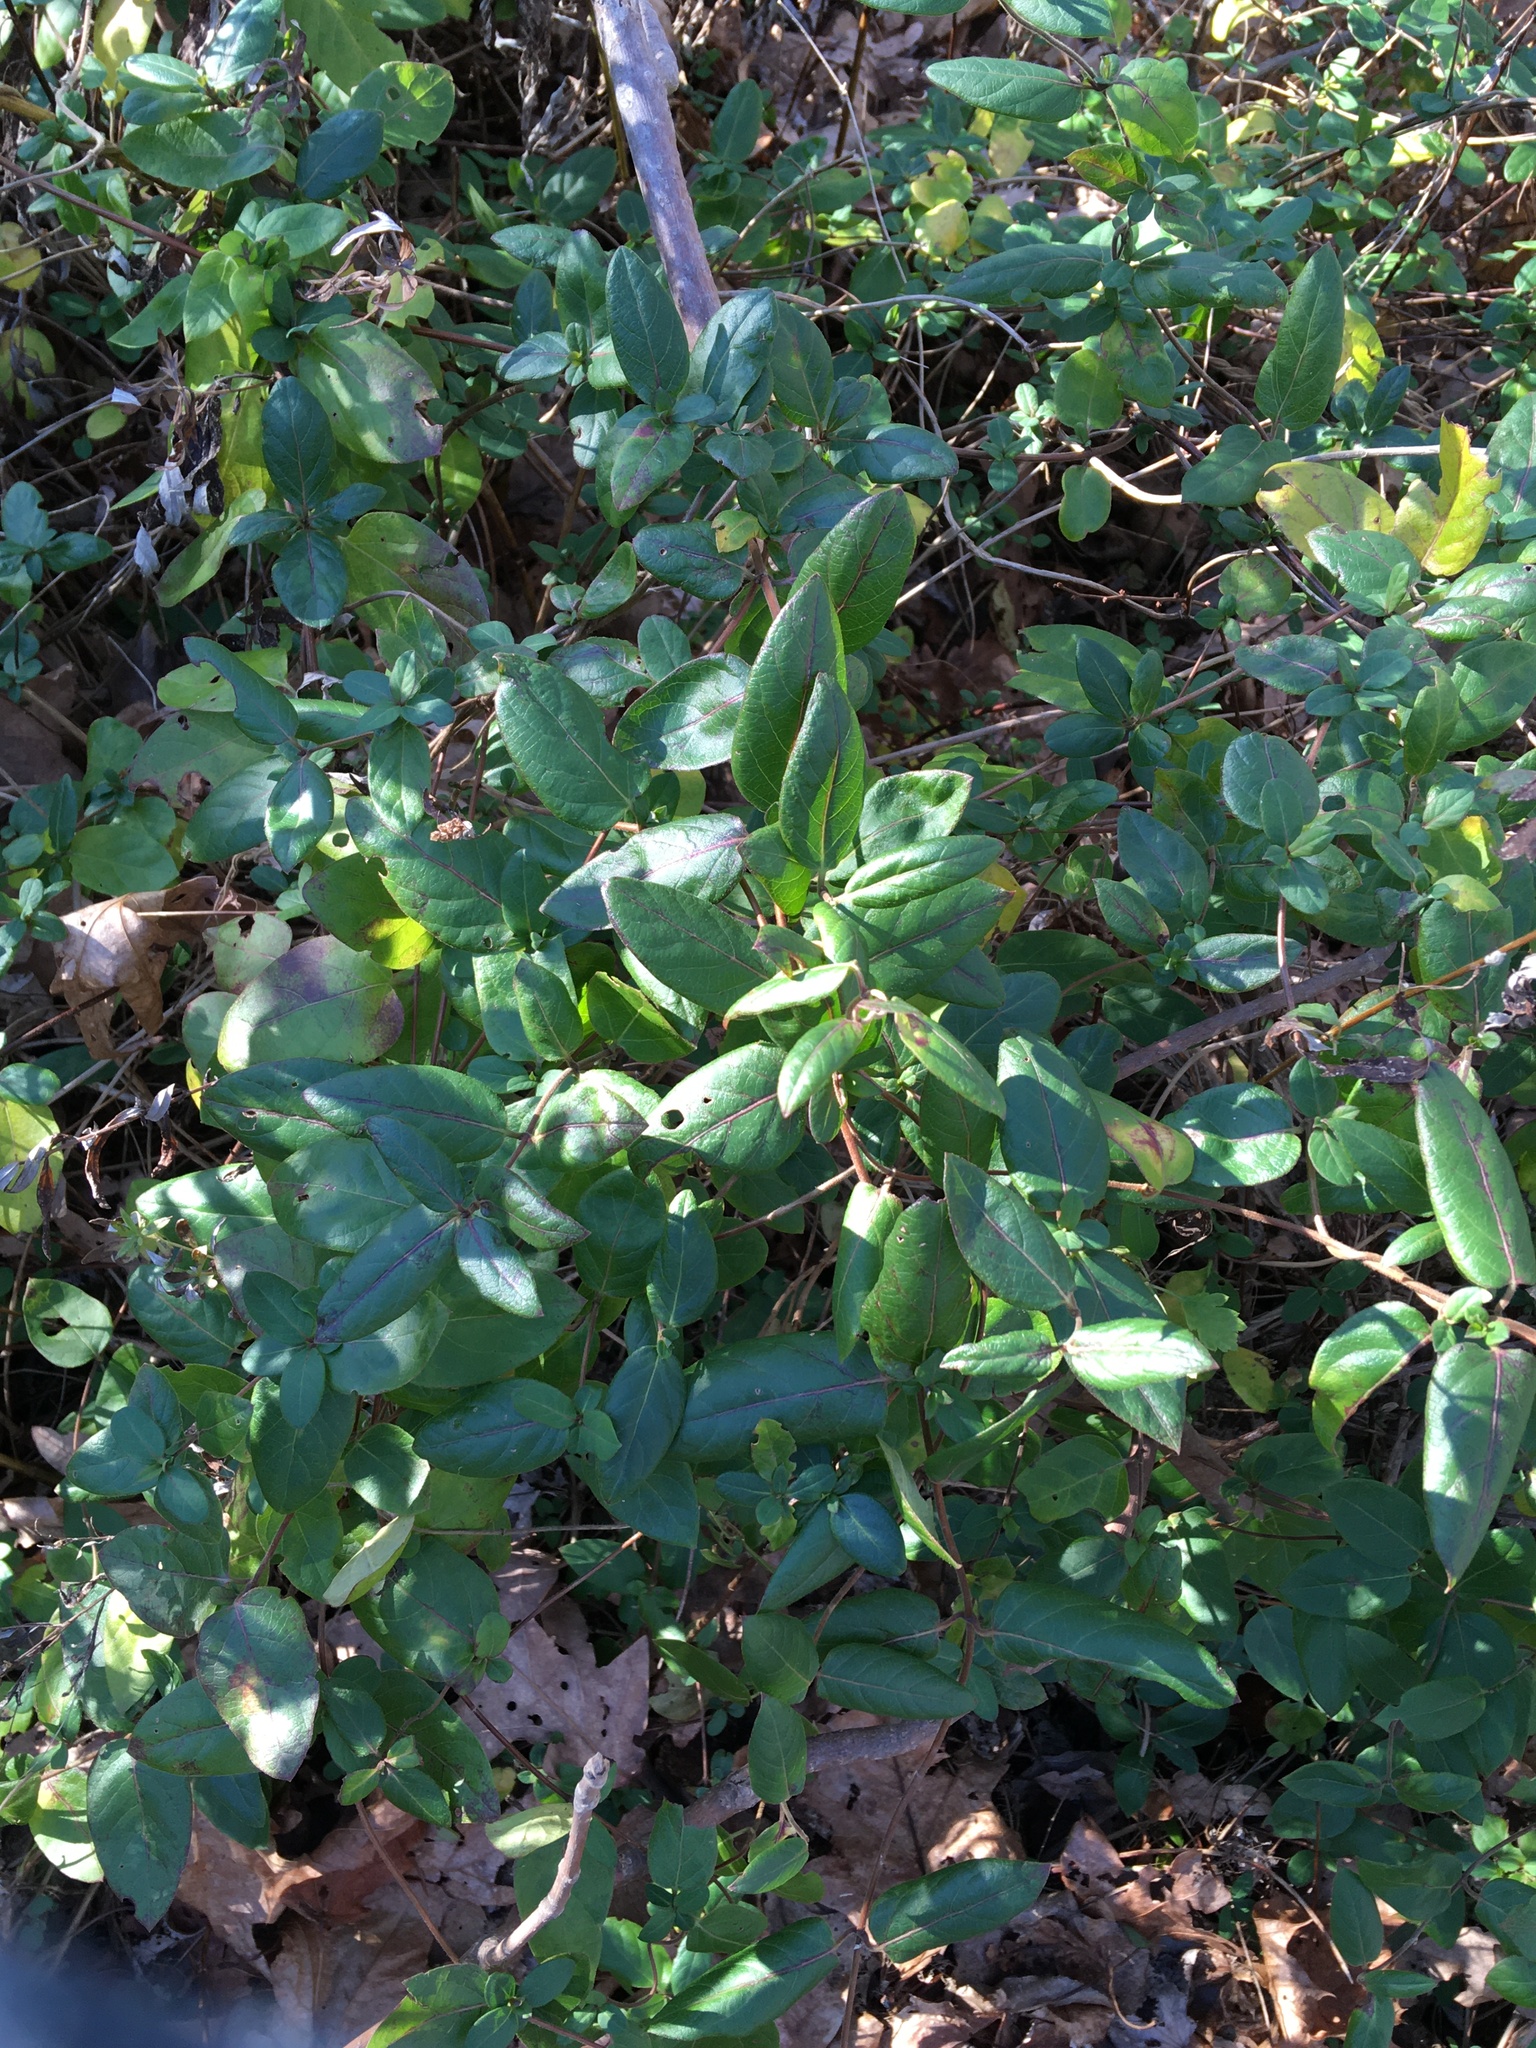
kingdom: Plantae
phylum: Tracheophyta
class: Magnoliopsida
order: Dipsacales
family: Caprifoliaceae
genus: Lonicera
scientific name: Lonicera japonica
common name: Japanese honeysuckle
